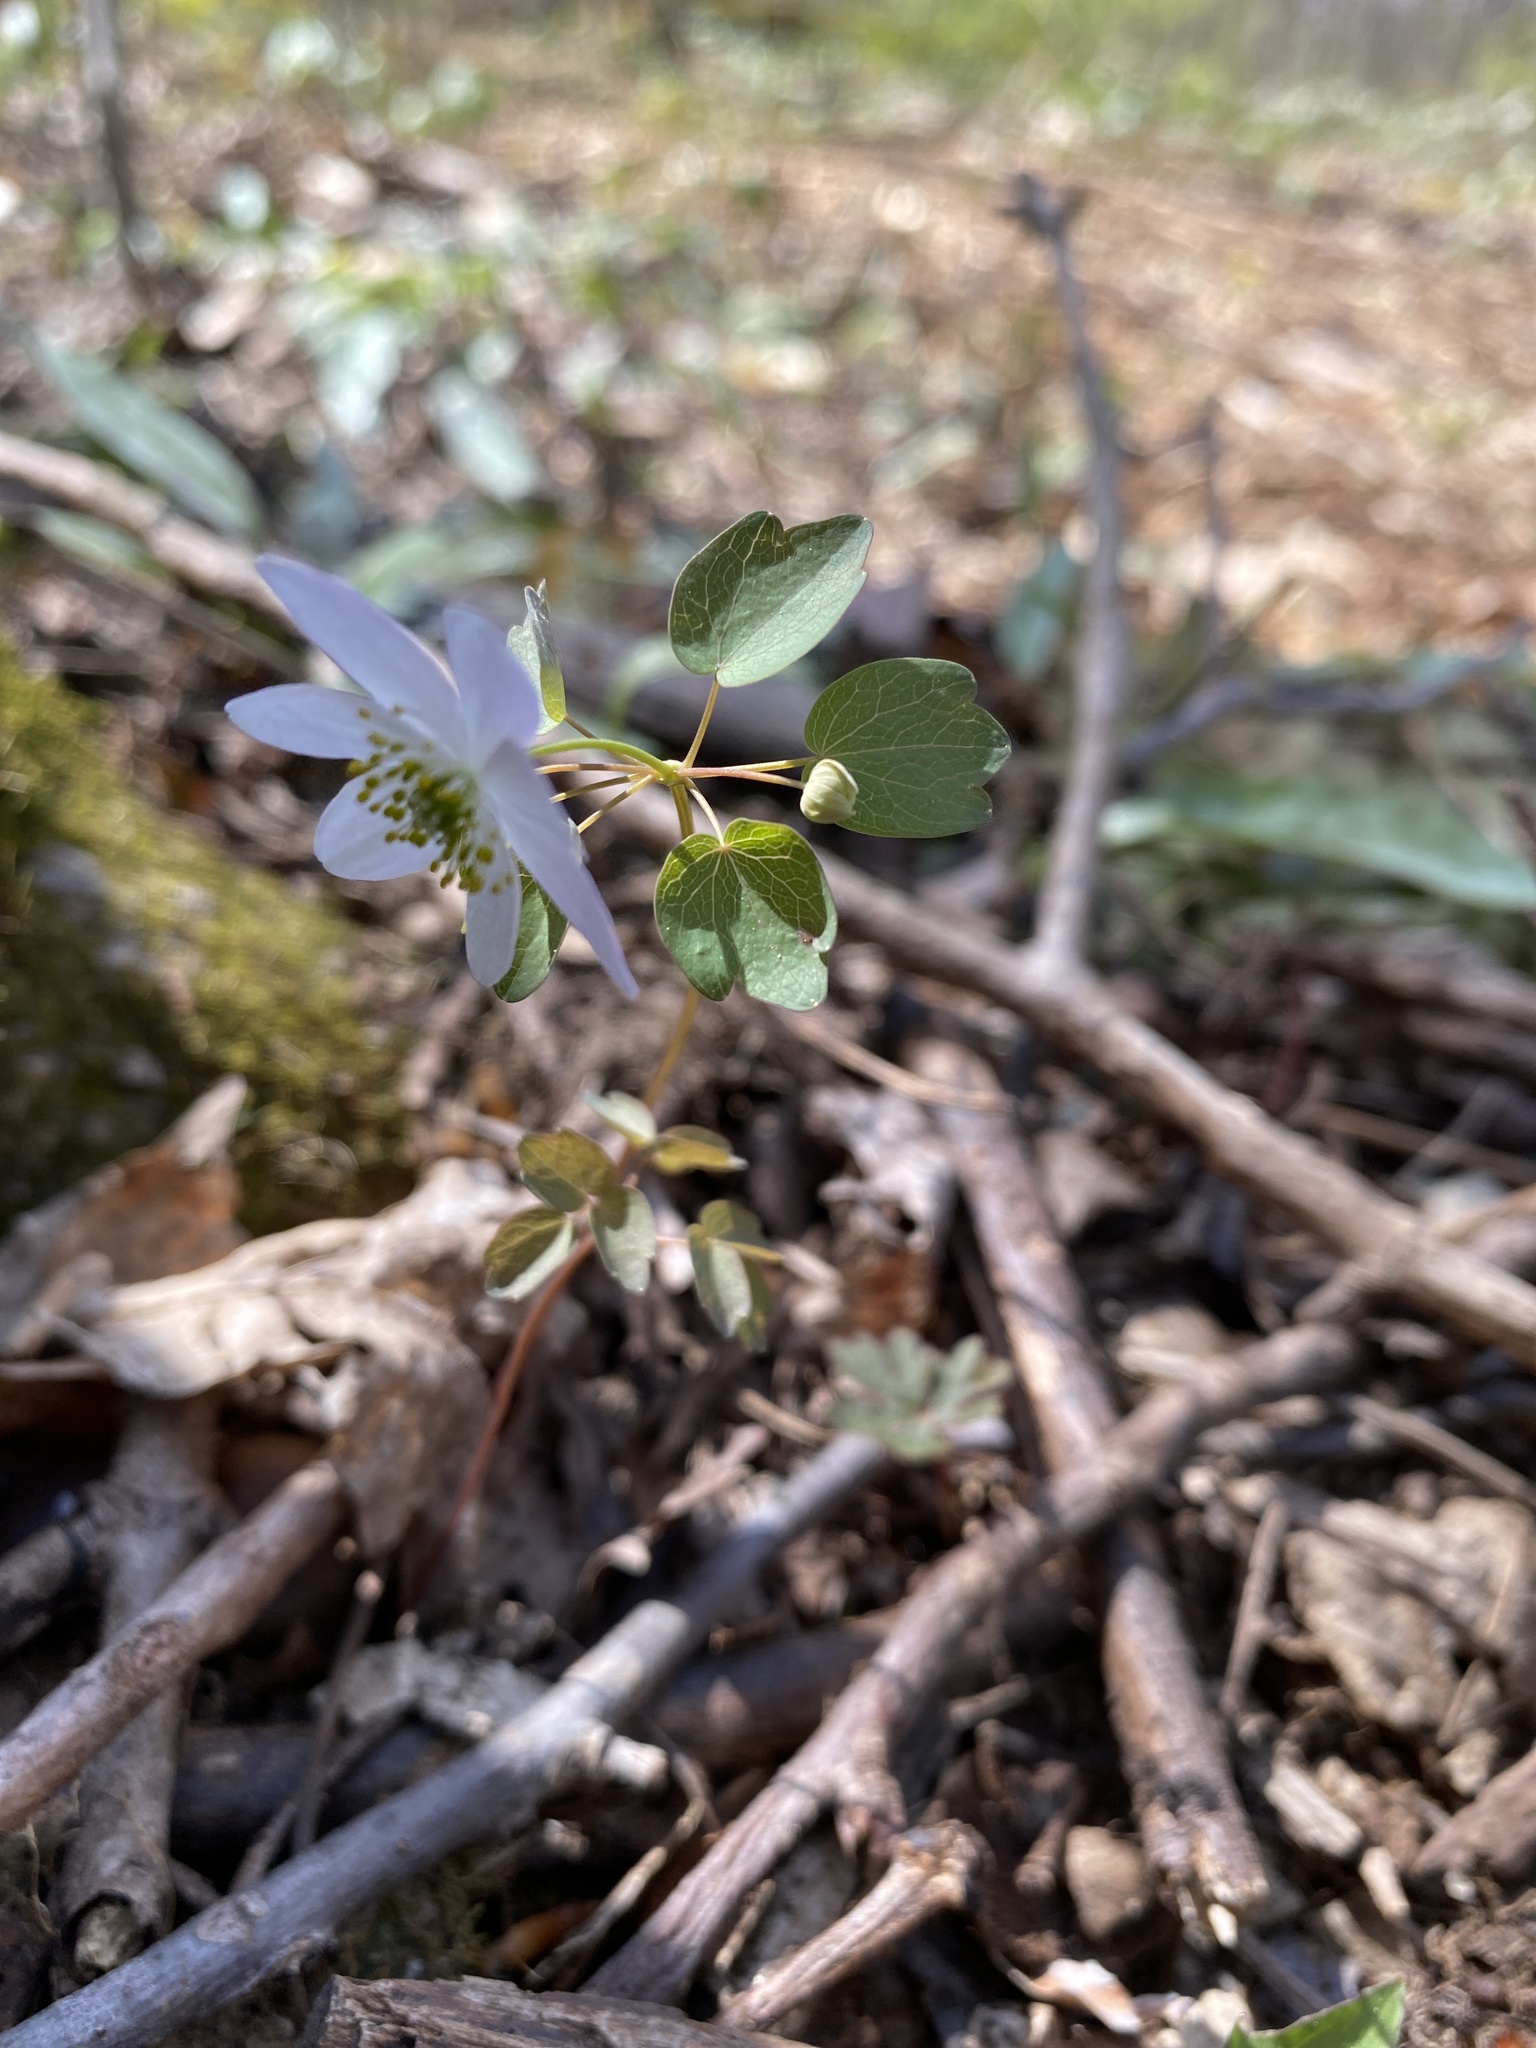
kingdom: Plantae
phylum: Tracheophyta
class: Magnoliopsida
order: Ranunculales
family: Ranunculaceae
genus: Thalictrum
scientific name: Thalictrum thalictroides
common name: Rue-anemone
